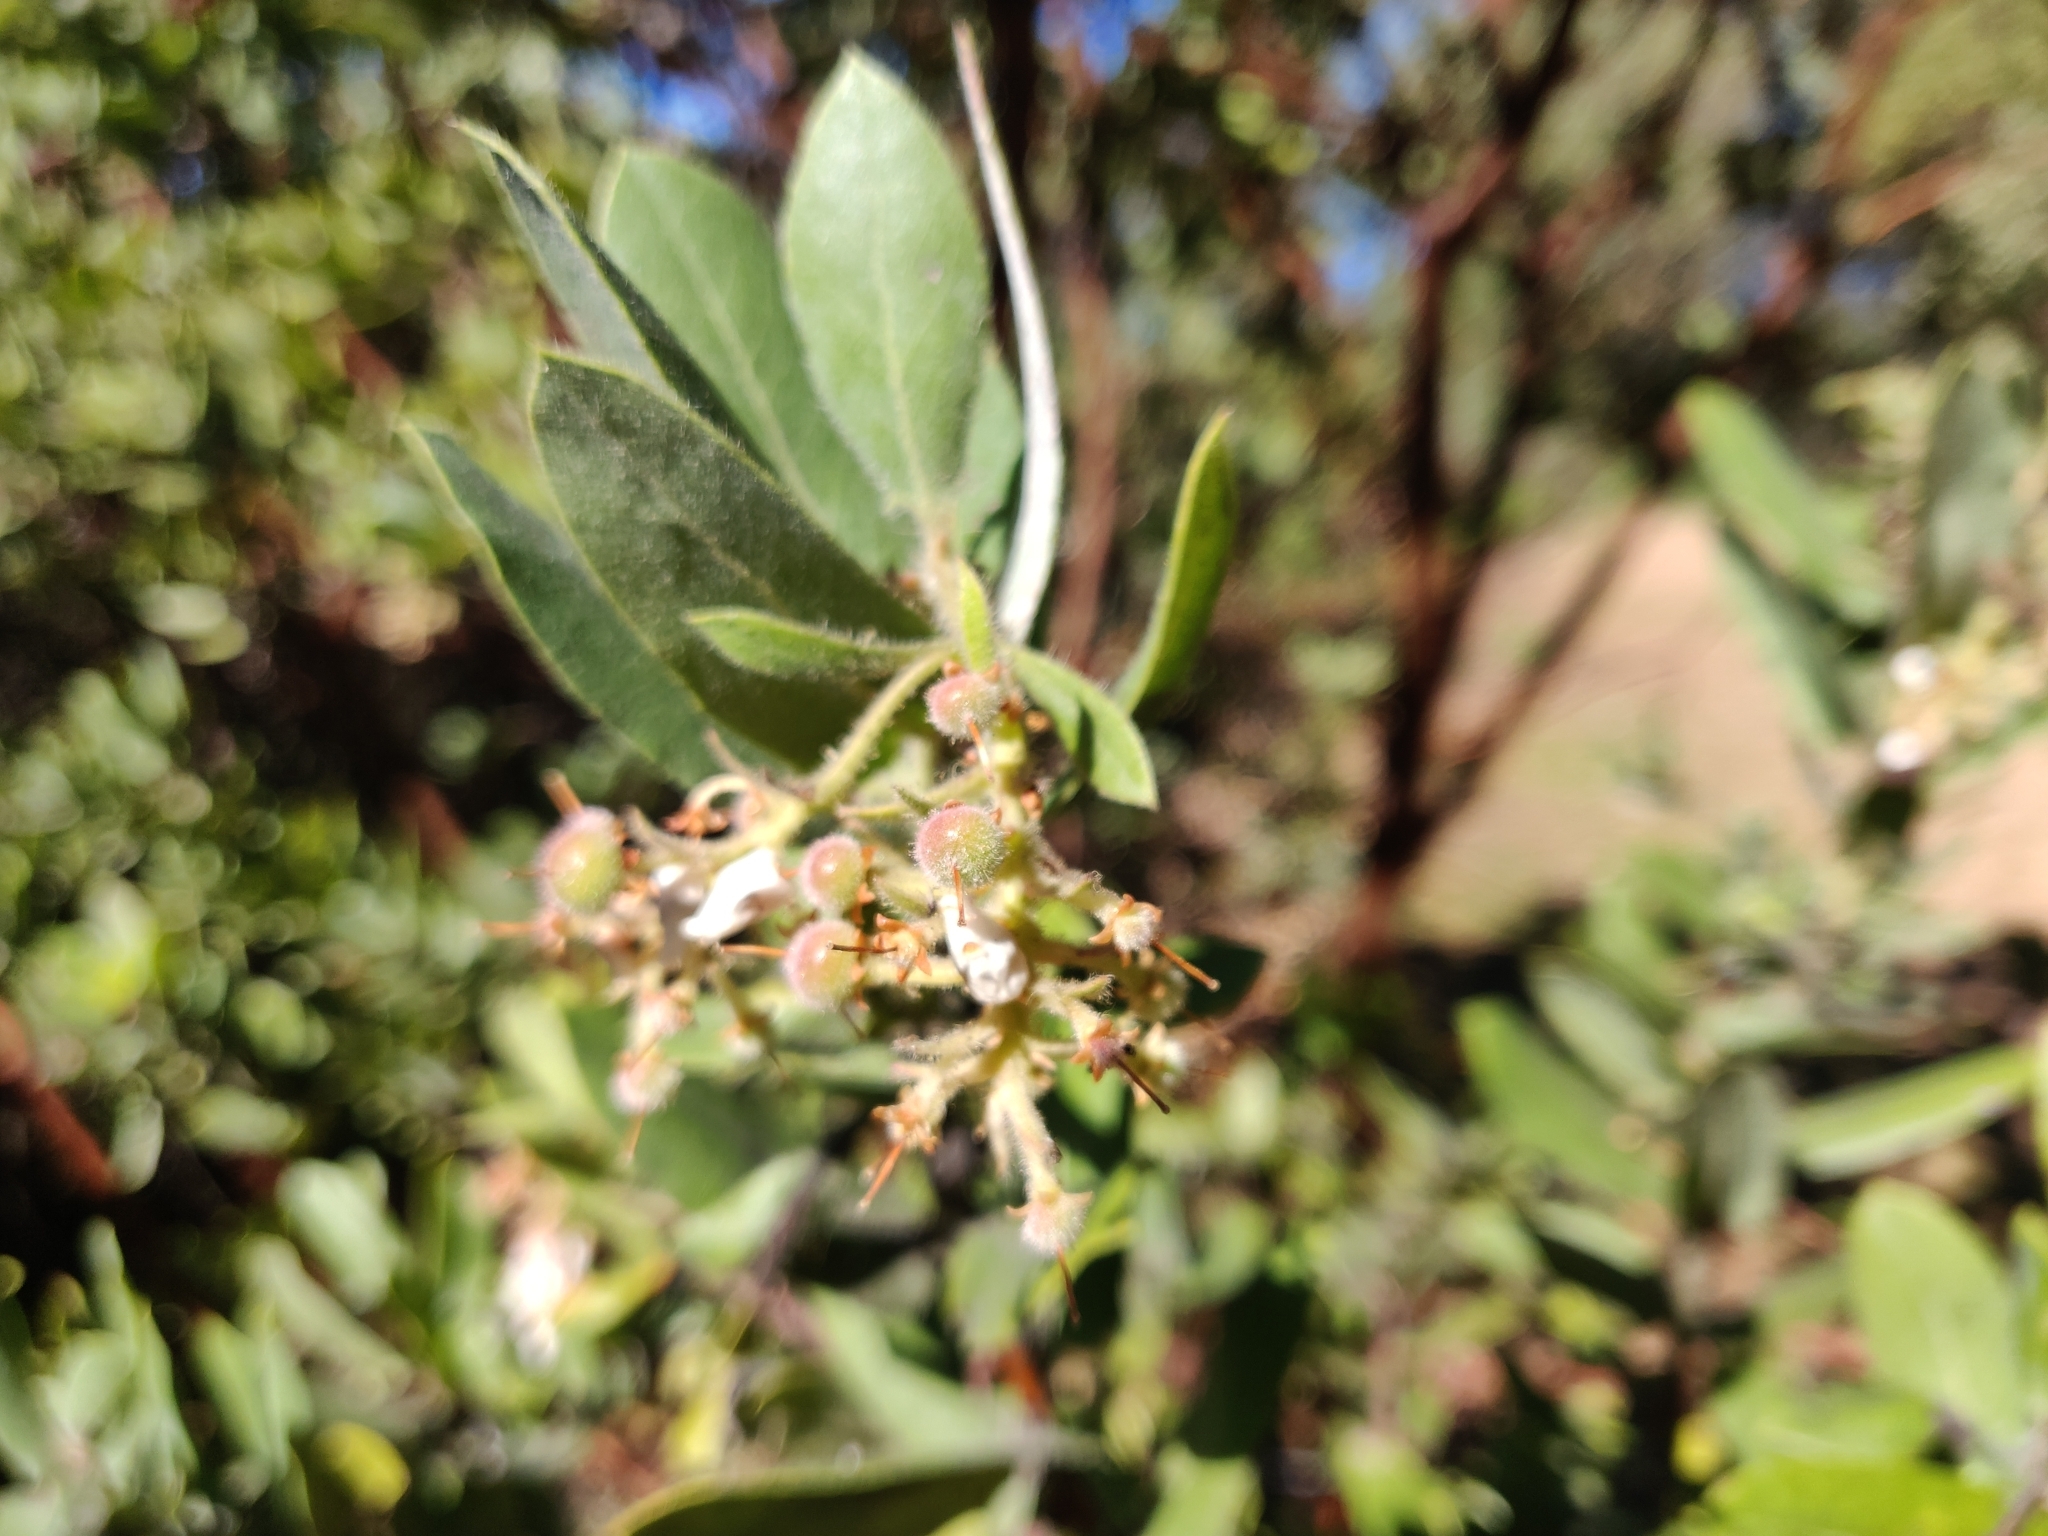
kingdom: Plantae
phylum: Tracheophyta
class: Magnoliopsida
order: Ericales
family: Ericaceae
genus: Arctostaphylos
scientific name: Arctostaphylos regismontana
